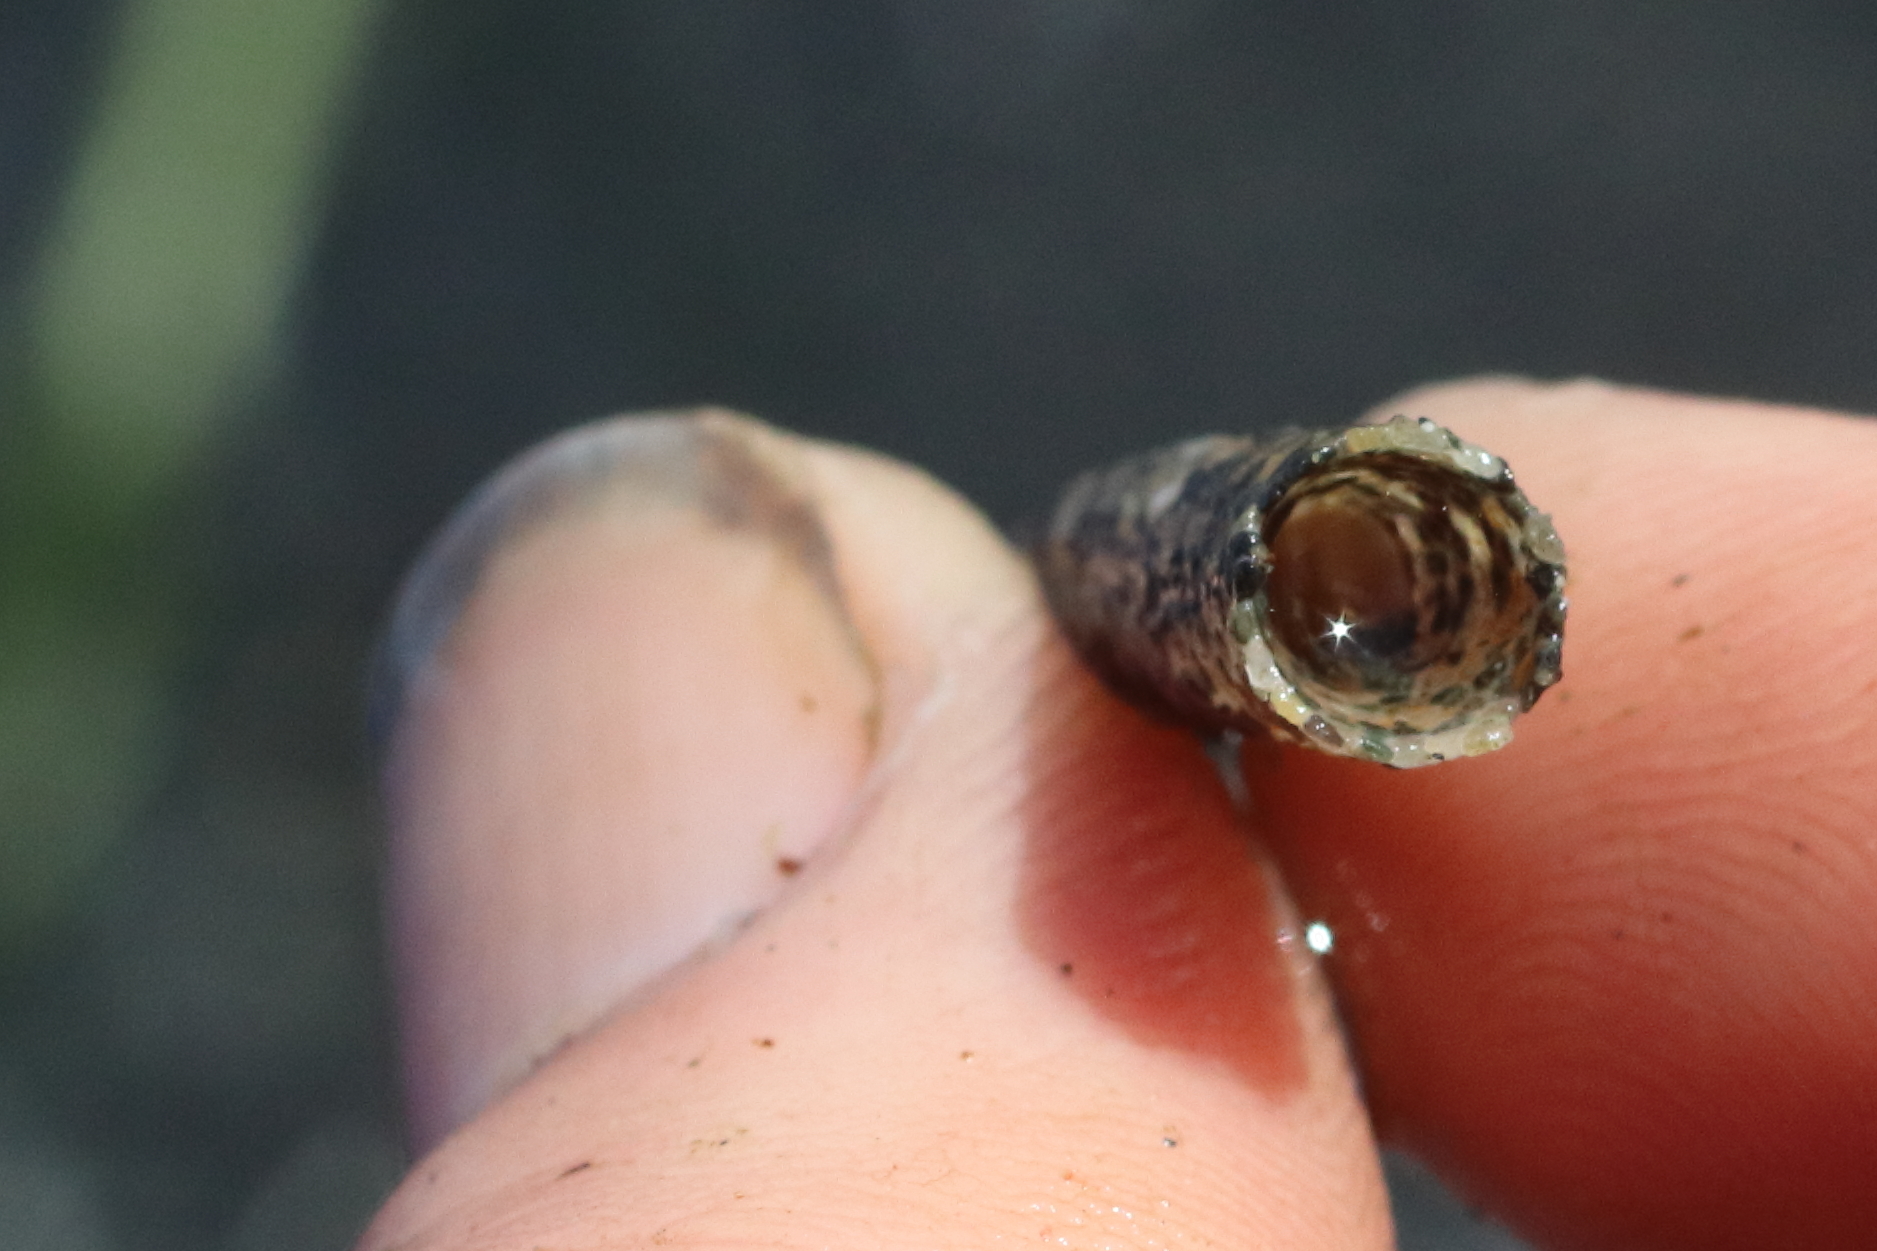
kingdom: Animalia
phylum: Annelida
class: Polychaeta
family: Pectinariidae
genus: Cistenides
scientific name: Cistenides brevicoma
